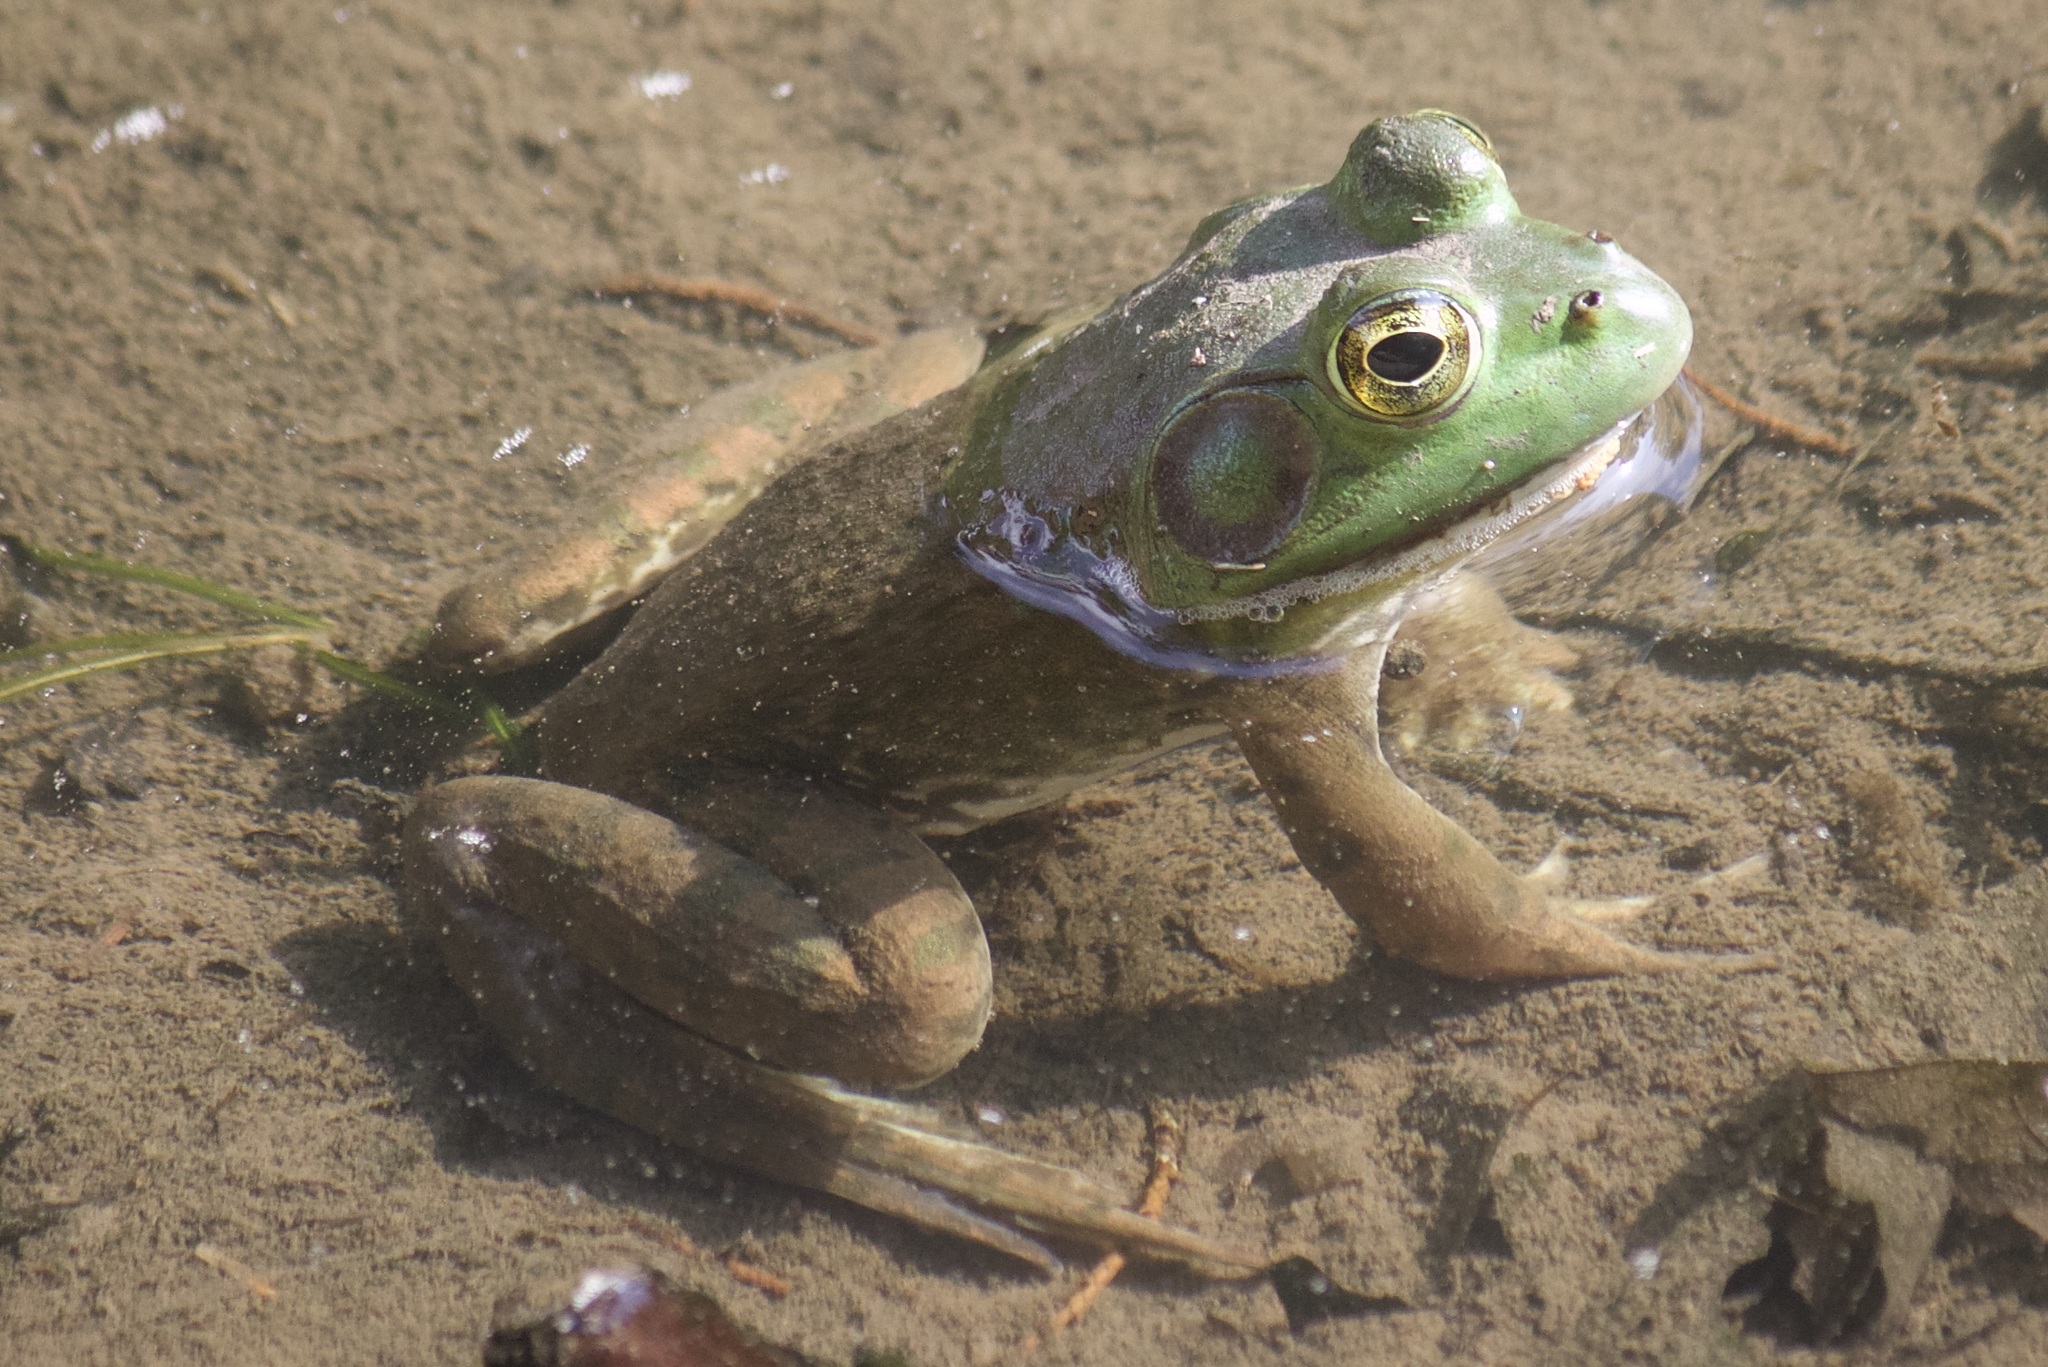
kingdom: Animalia
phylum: Chordata
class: Amphibia
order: Anura
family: Ranidae
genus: Lithobates
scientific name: Lithobates catesbeianus
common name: American bullfrog
